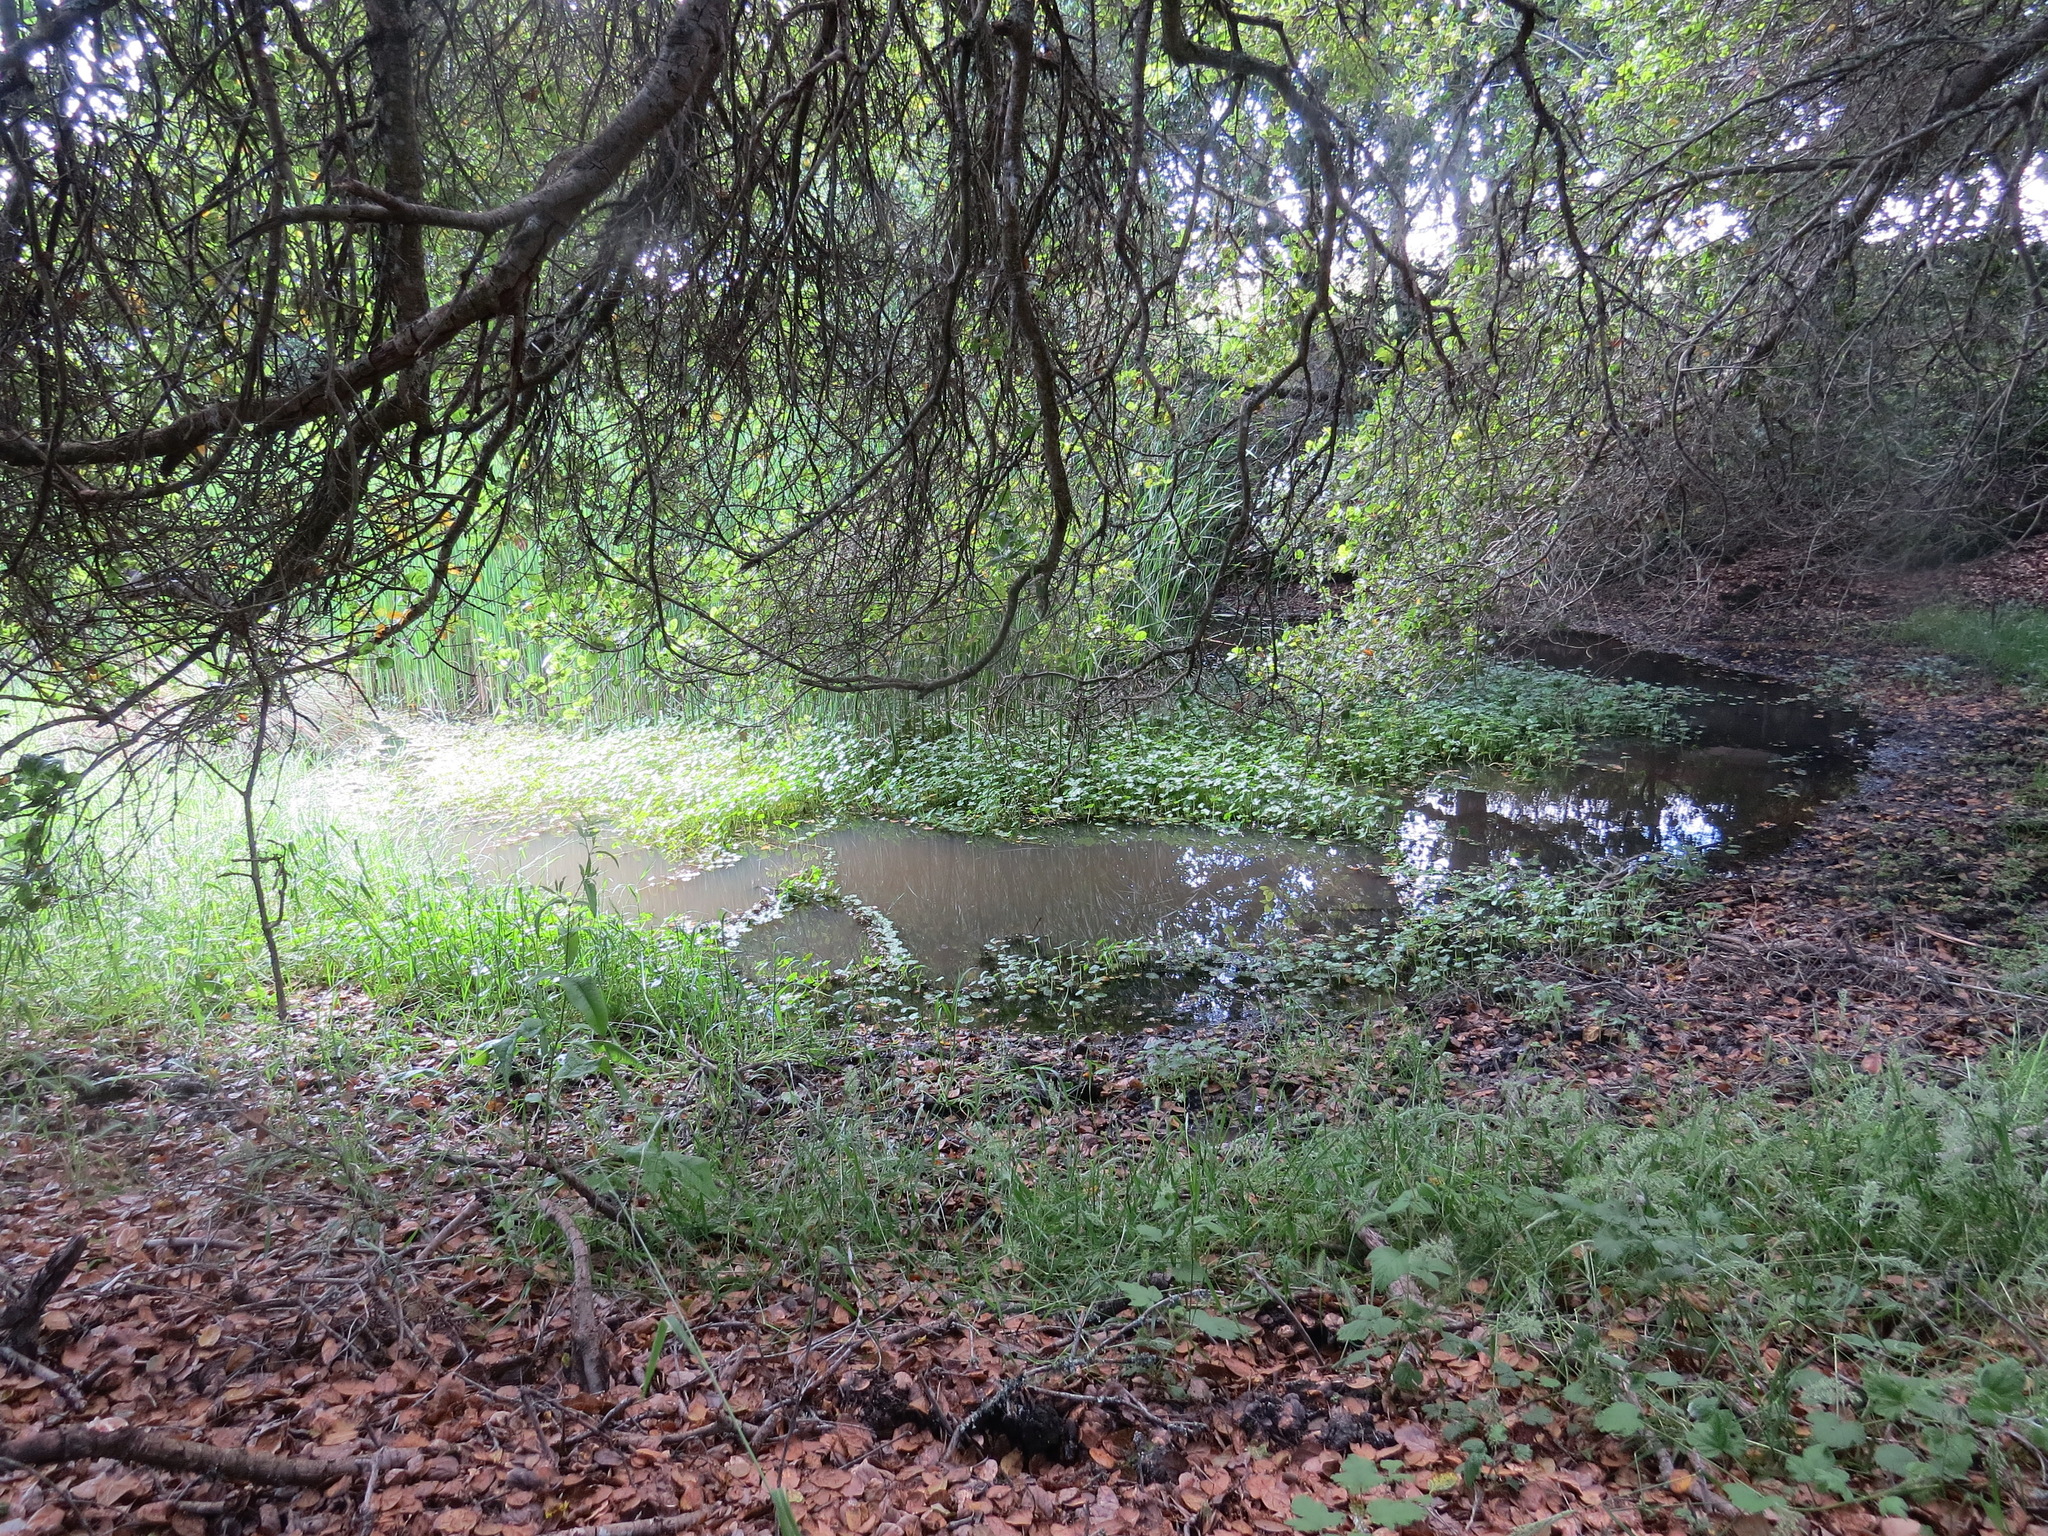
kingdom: Plantae
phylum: Tracheophyta
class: Magnoliopsida
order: Apiales
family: Araliaceae
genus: Hydrocotyle
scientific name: Hydrocotyle ranunculoides
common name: Floating pennywort
